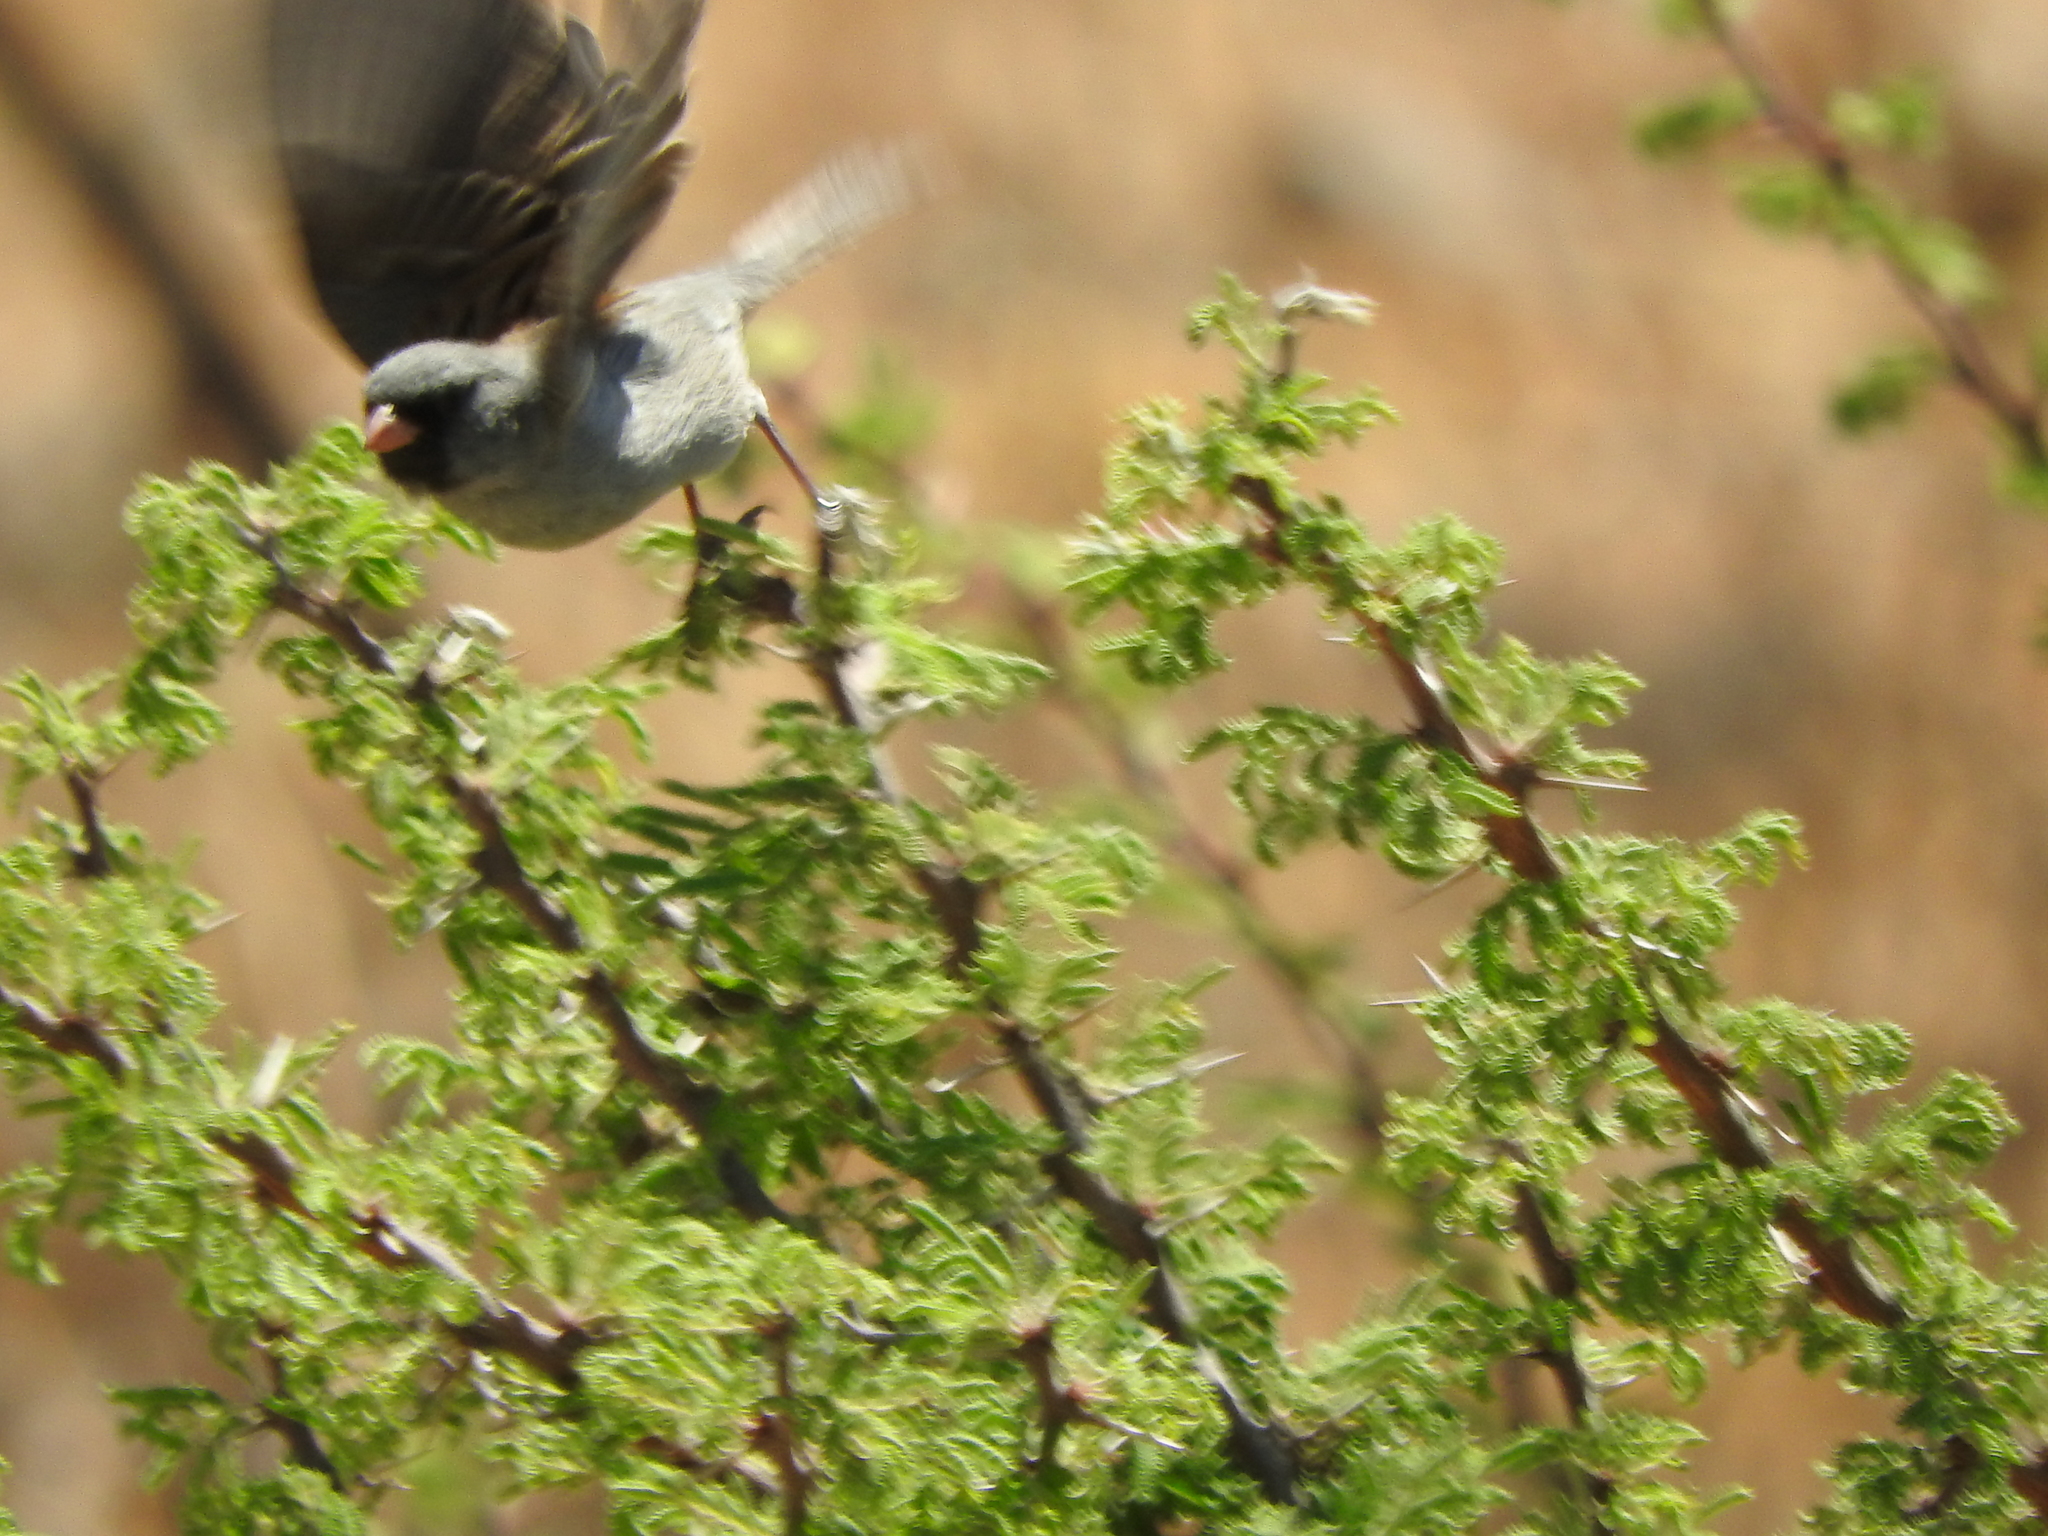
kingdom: Animalia
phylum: Chordata
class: Aves
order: Passeriformes
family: Passerellidae
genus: Spizella
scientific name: Spizella atrogularis
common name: Black-chinned sparrow
